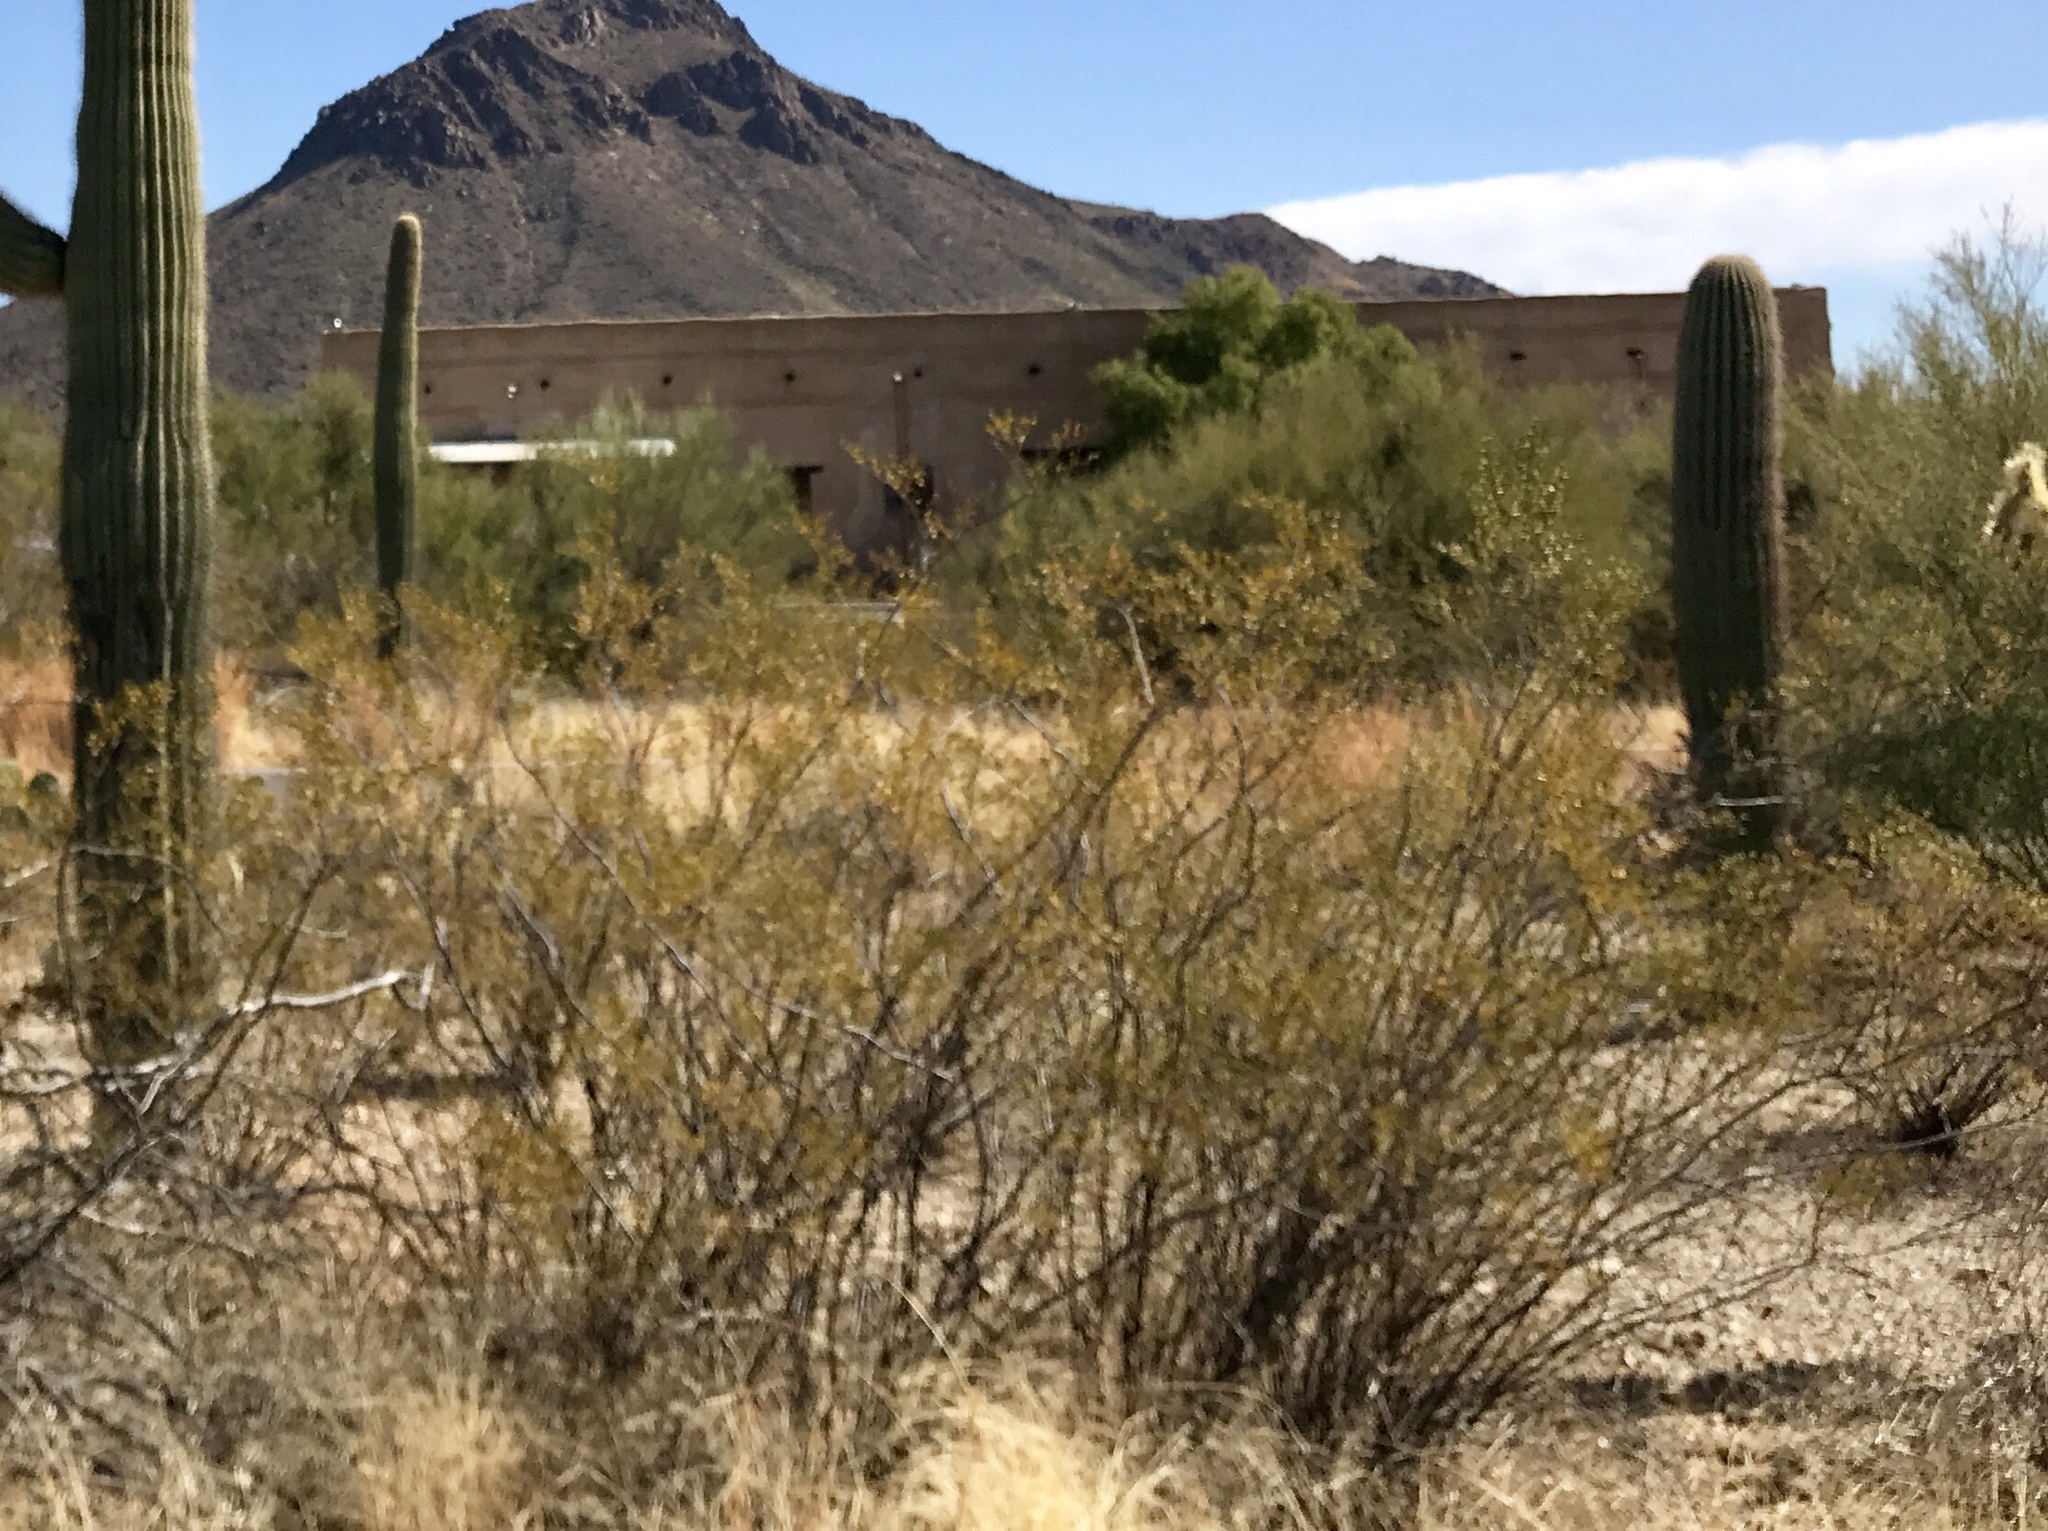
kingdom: Plantae
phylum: Tracheophyta
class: Magnoliopsida
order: Zygophyllales
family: Zygophyllaceae
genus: Larrea
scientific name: Larrea tridentata
